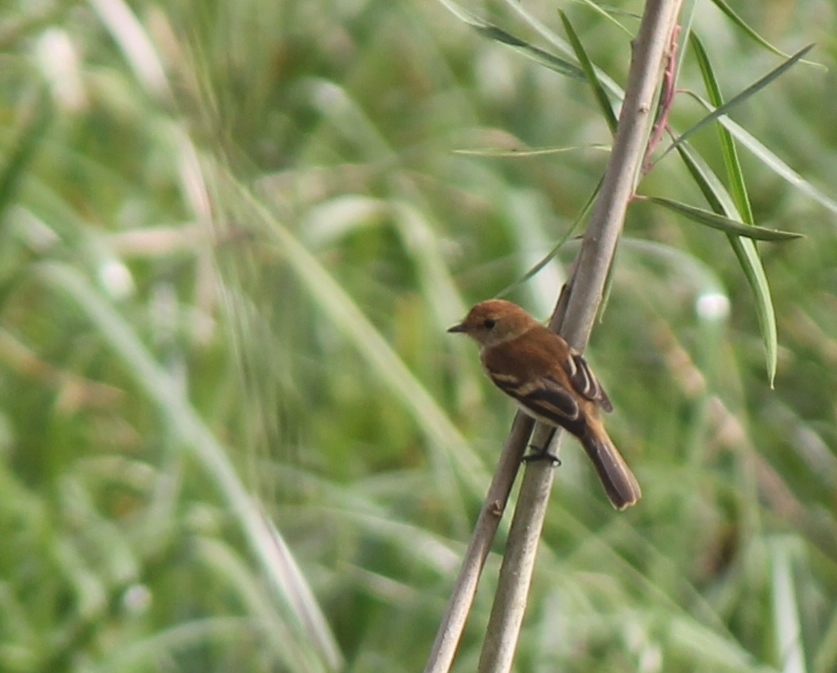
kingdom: Animalia
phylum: Chordata
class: Aves
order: Passeriformes
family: Tyrannidae
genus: Myiophobus
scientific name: Myiophobus fasciatus
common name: Bran-colored flycatcher
